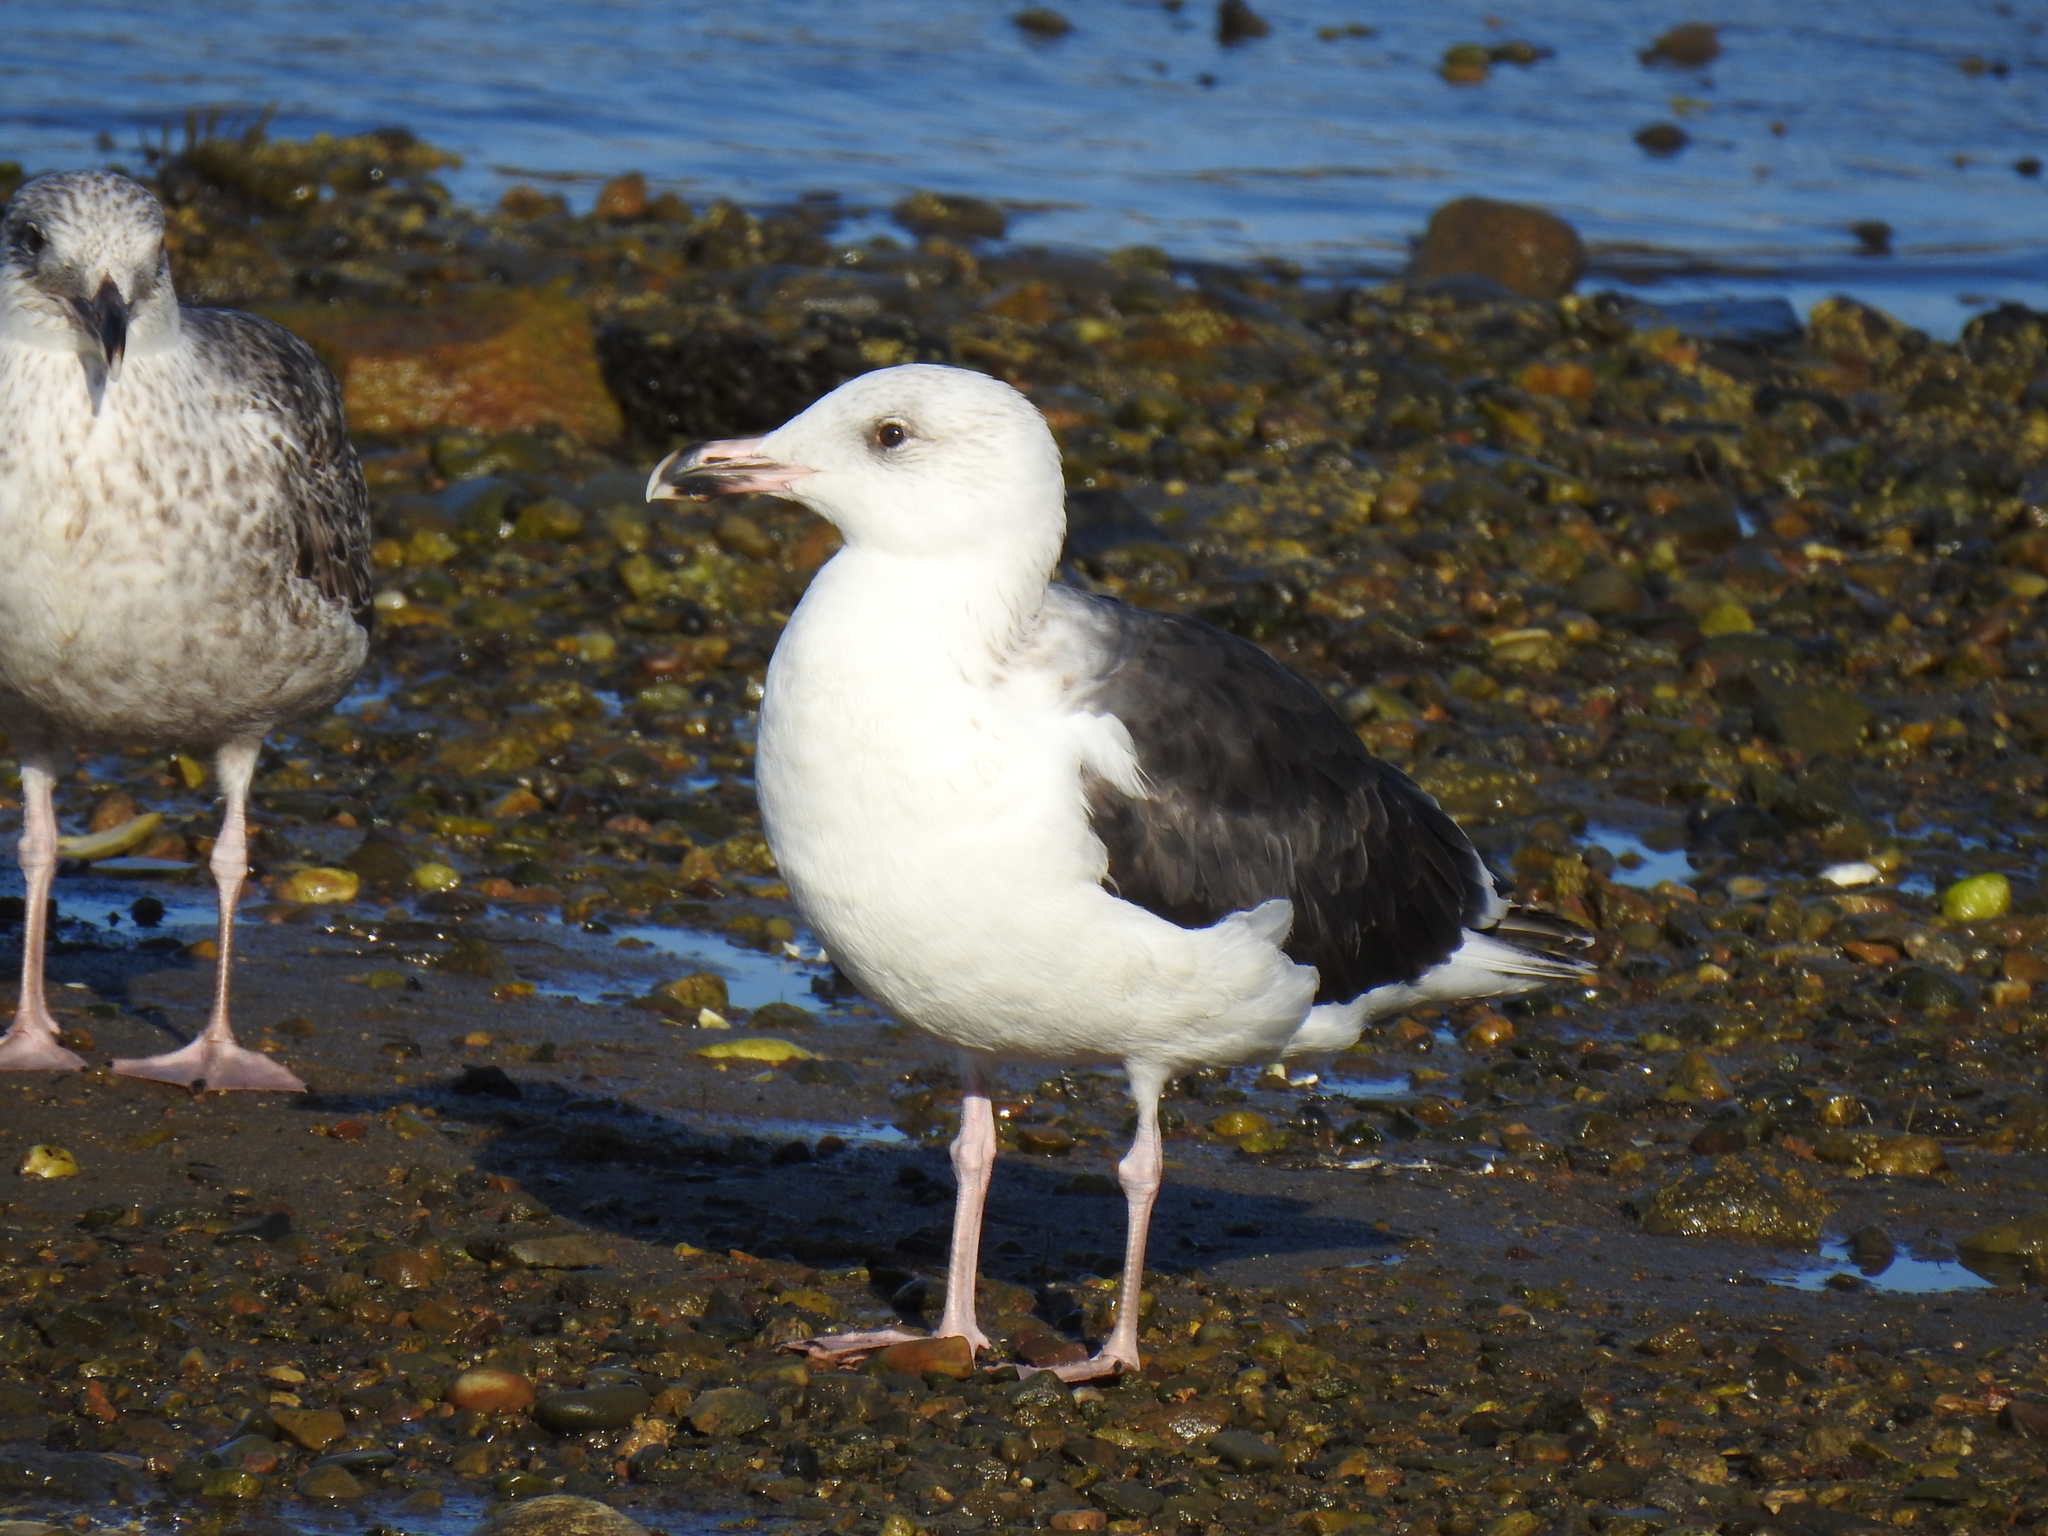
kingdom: Animalia
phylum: Chordata
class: Aves
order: Charadriiformes
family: Laridae
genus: Larus
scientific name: Larus marinus
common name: Great black-backed gull
